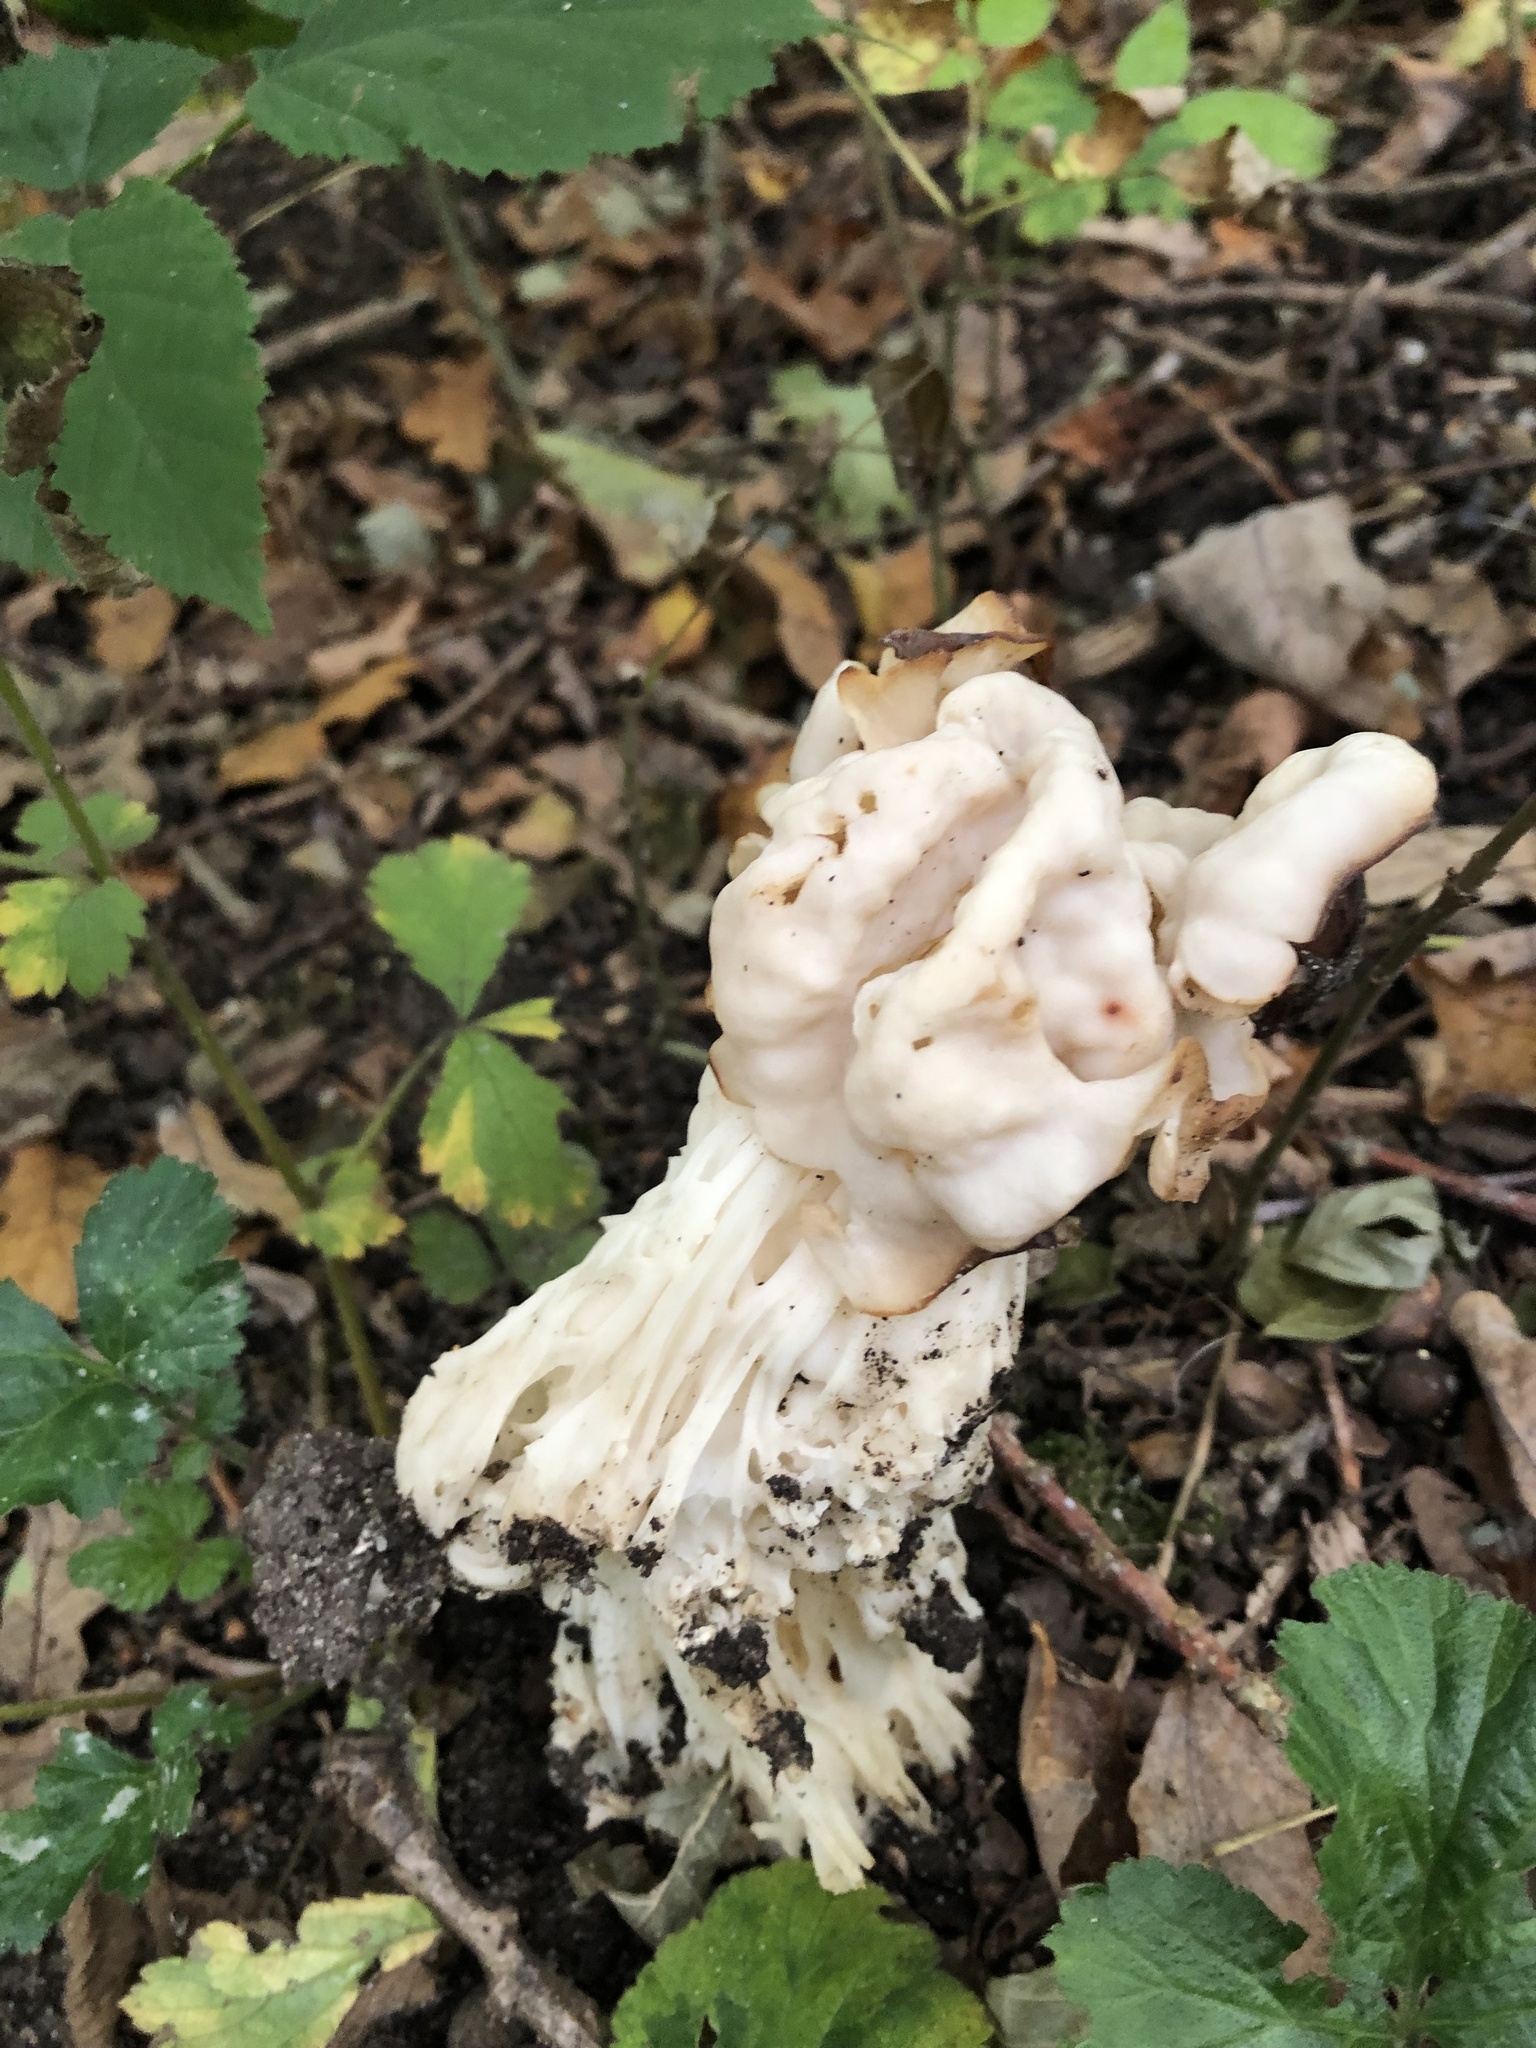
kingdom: Fungi
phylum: Ascomycota
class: Pezizomycetes
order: Pezizales
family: Helvellaceae
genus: Helvella
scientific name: Helvella crispa
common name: White saddle
